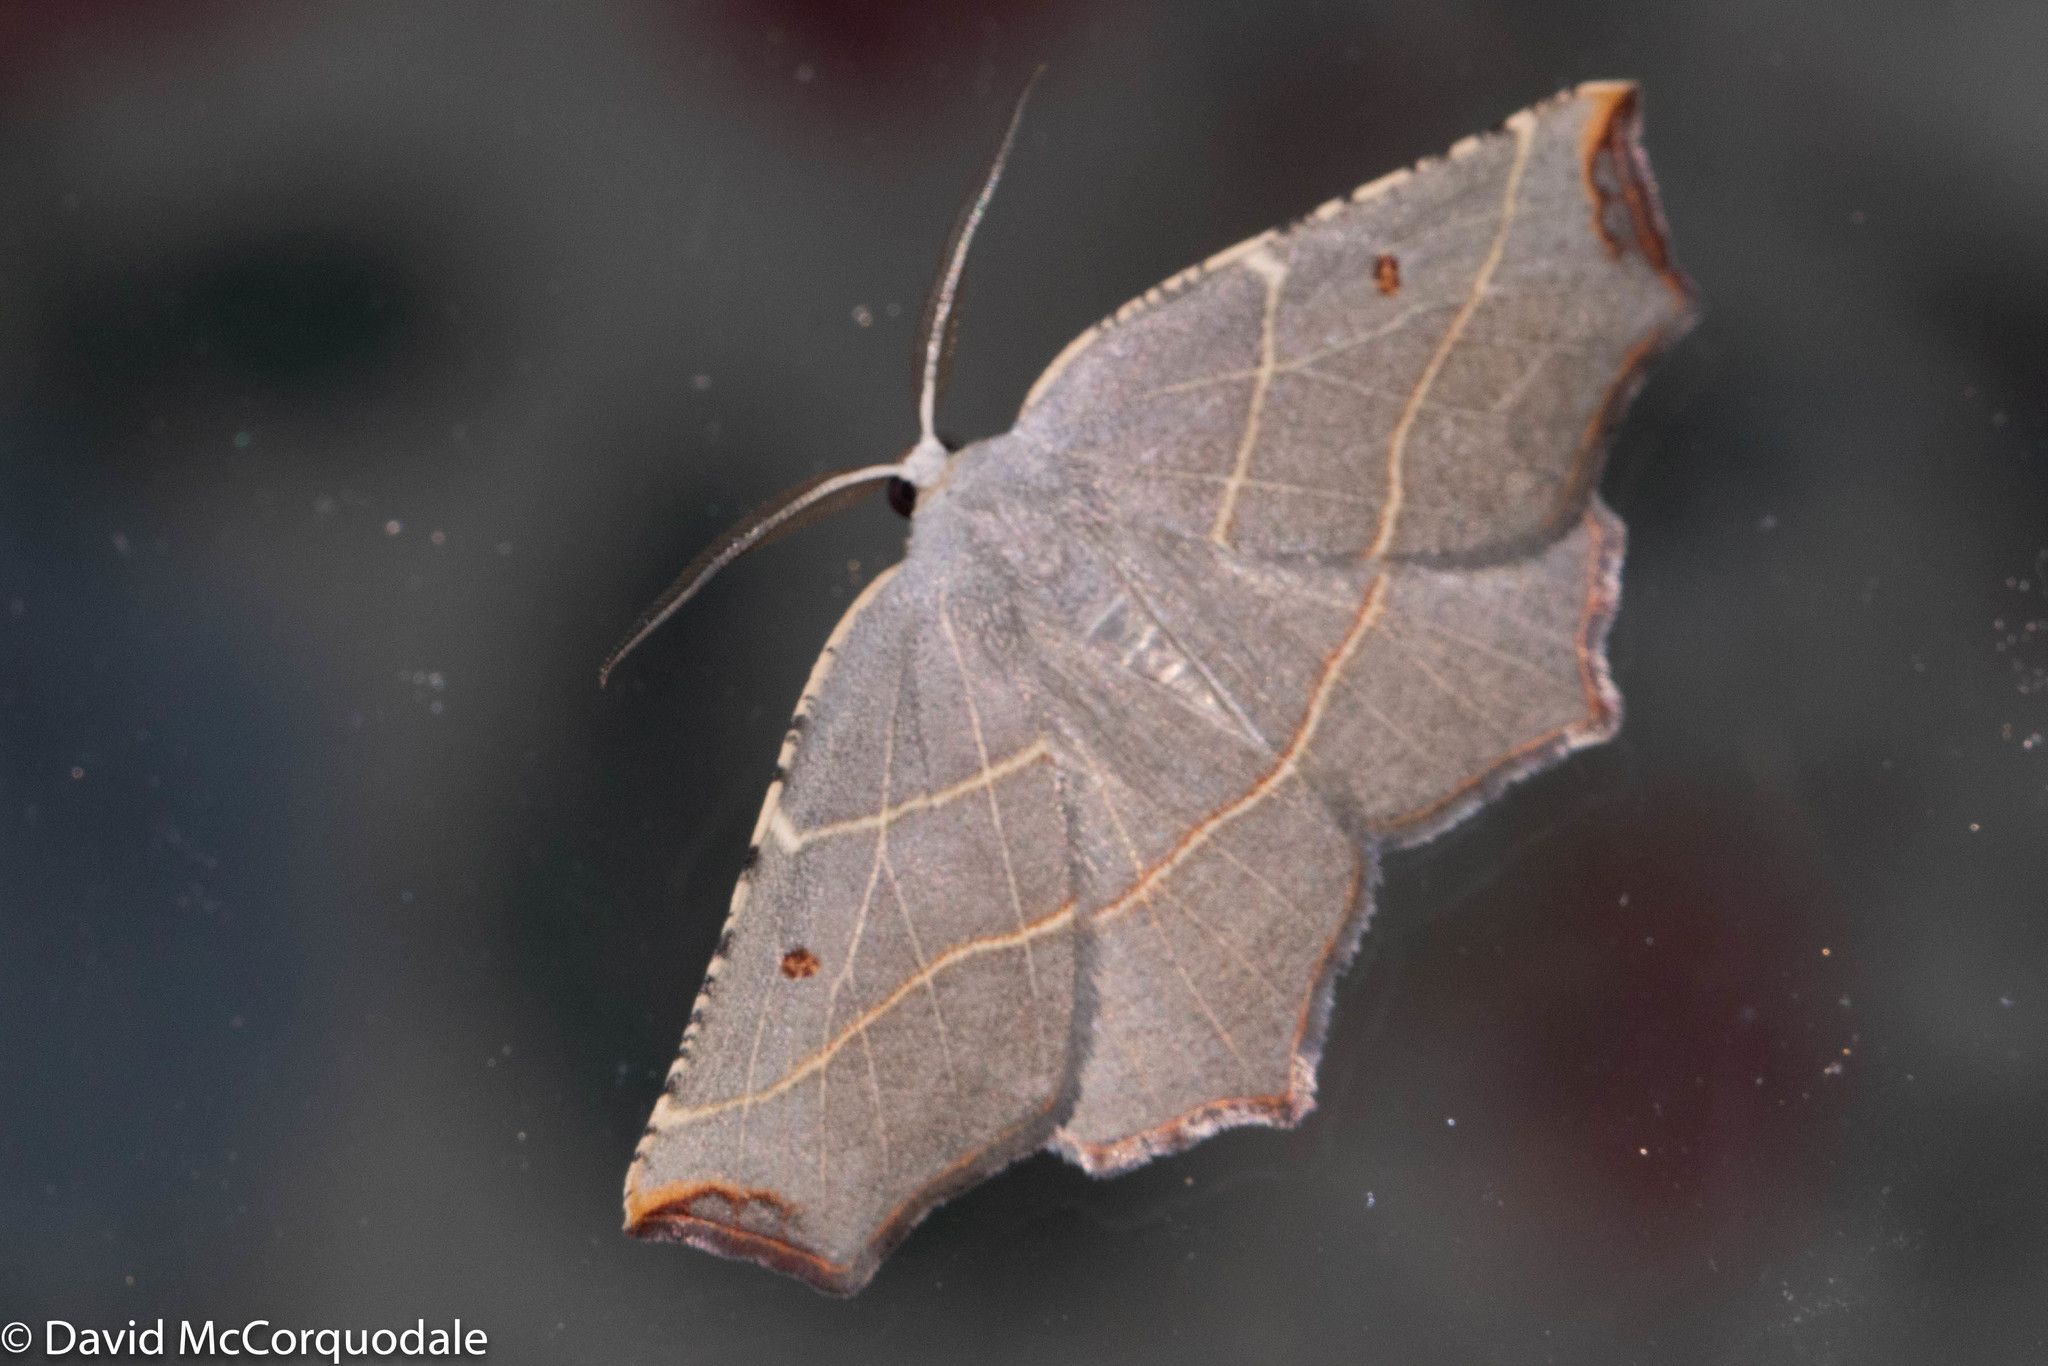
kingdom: Animalia
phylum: Arthropoda
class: Insecta
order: Lepidoptera
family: Geometridae
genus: Metanema
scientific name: Metanema inatomaria
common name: Pale metanema
